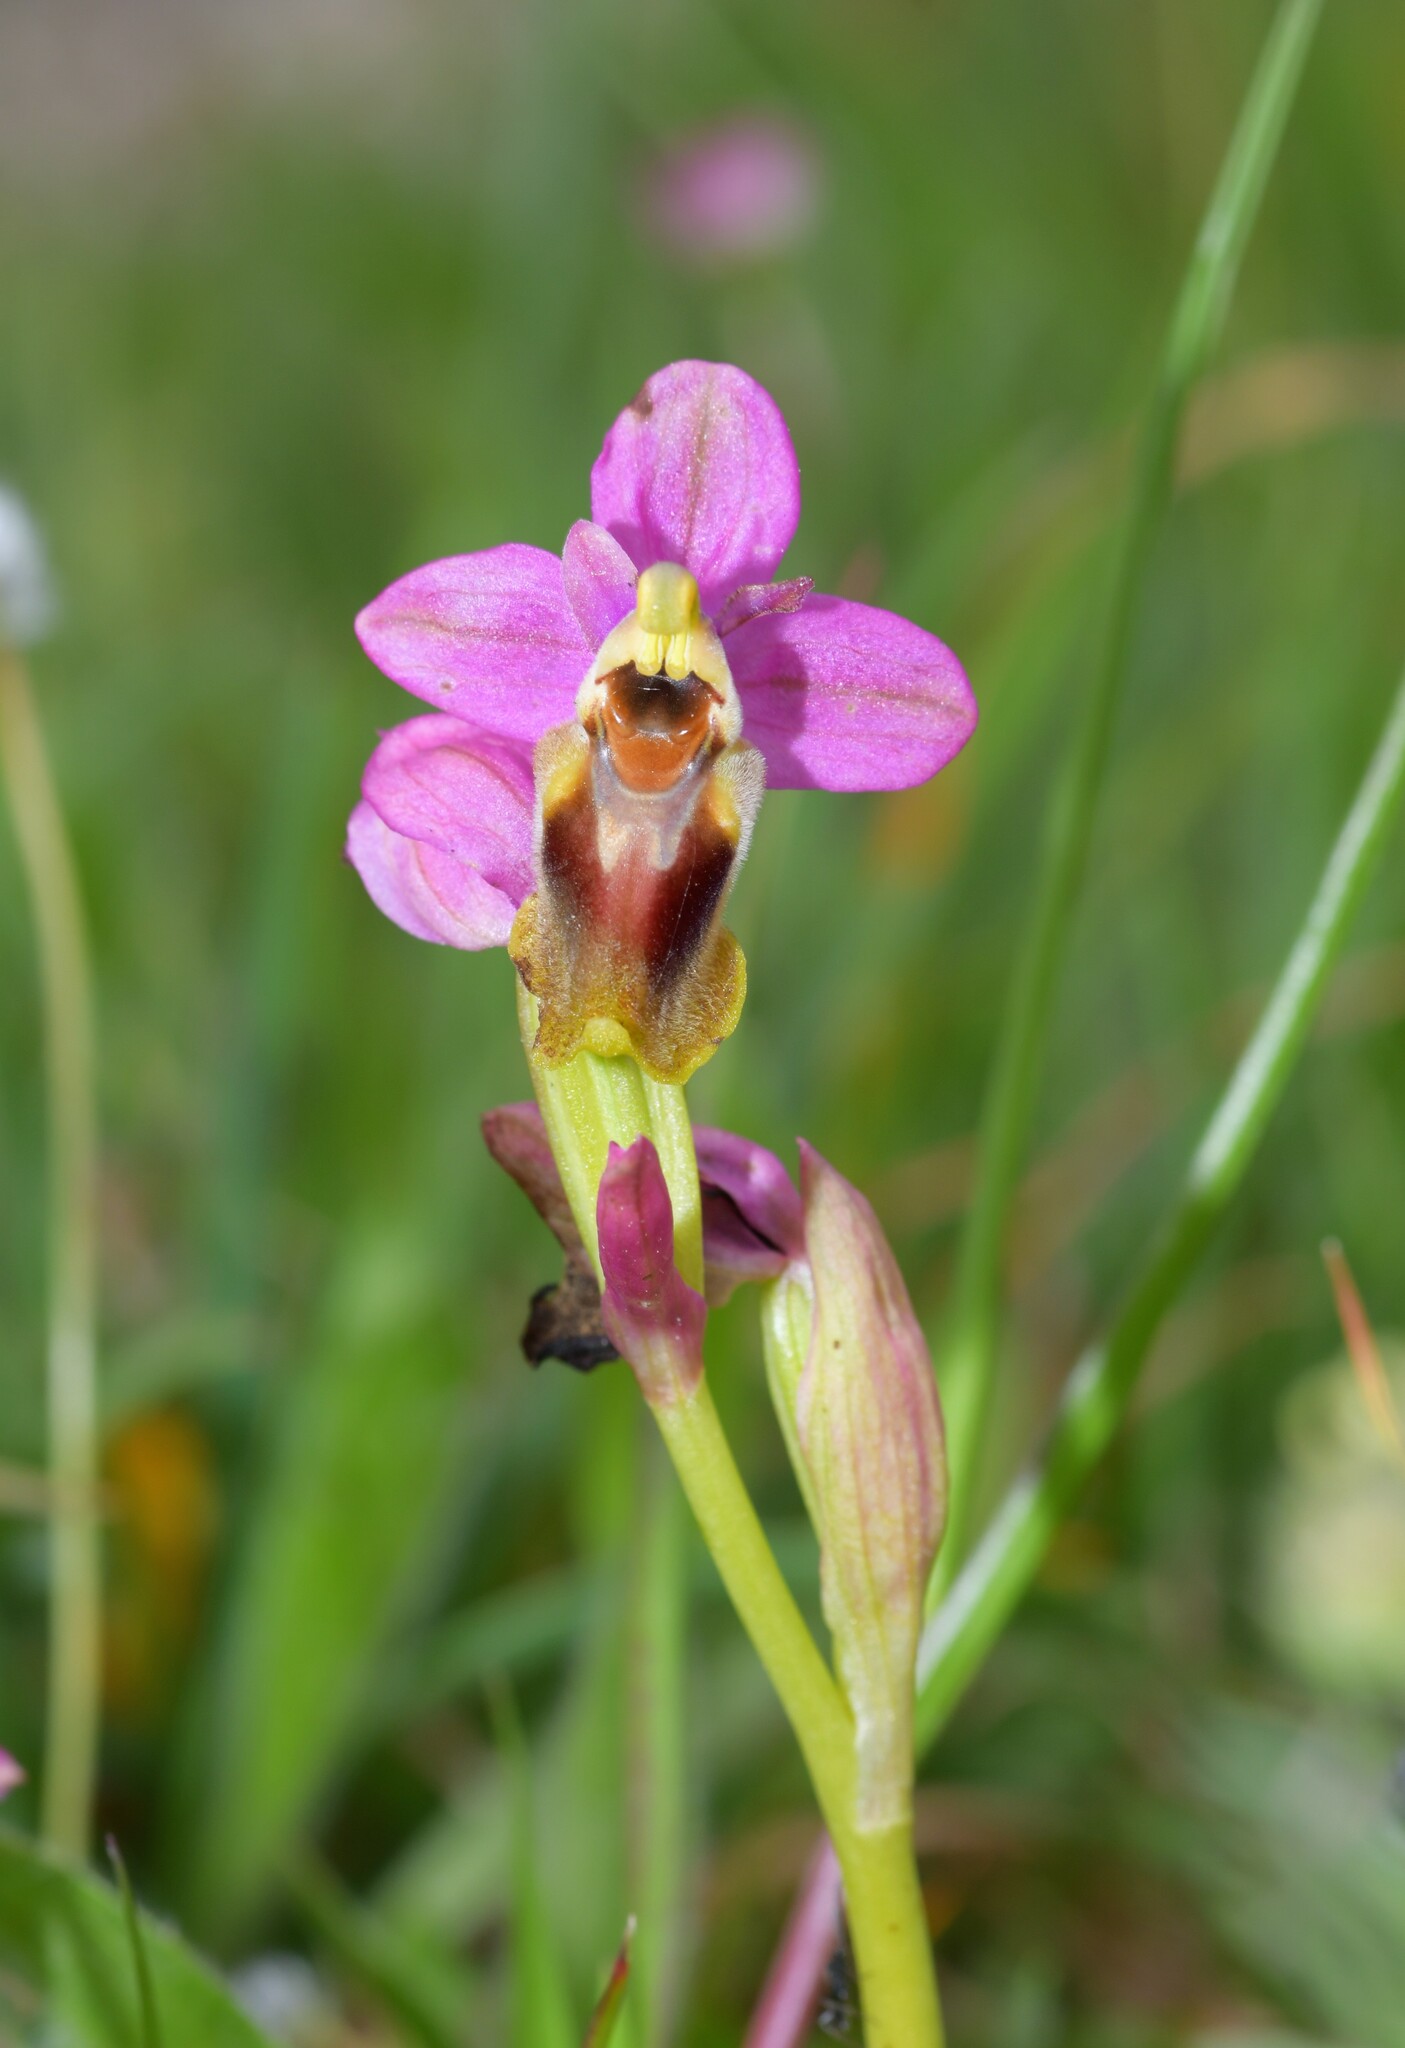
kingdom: Plantae
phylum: Tracheophyta
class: Liliopsida
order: Asparagales
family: Orchidaceae
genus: Ophrys
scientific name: Ophrys tenthredinifera
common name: Sawfly orchid
